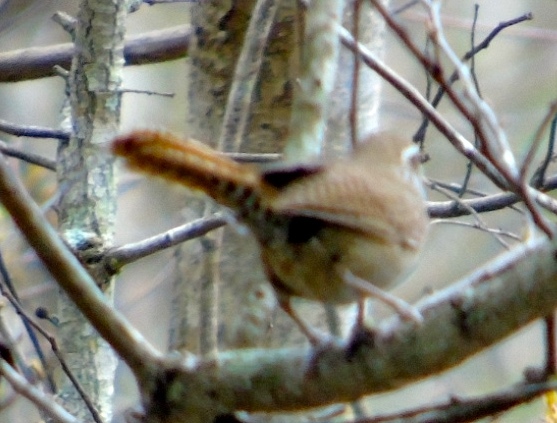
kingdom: Animalia
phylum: Chordata
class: Aves
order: Passeriformes
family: Troglodytidae
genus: Thryophilus
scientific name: Thryophilus sinaloa
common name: Sinaloa wren
